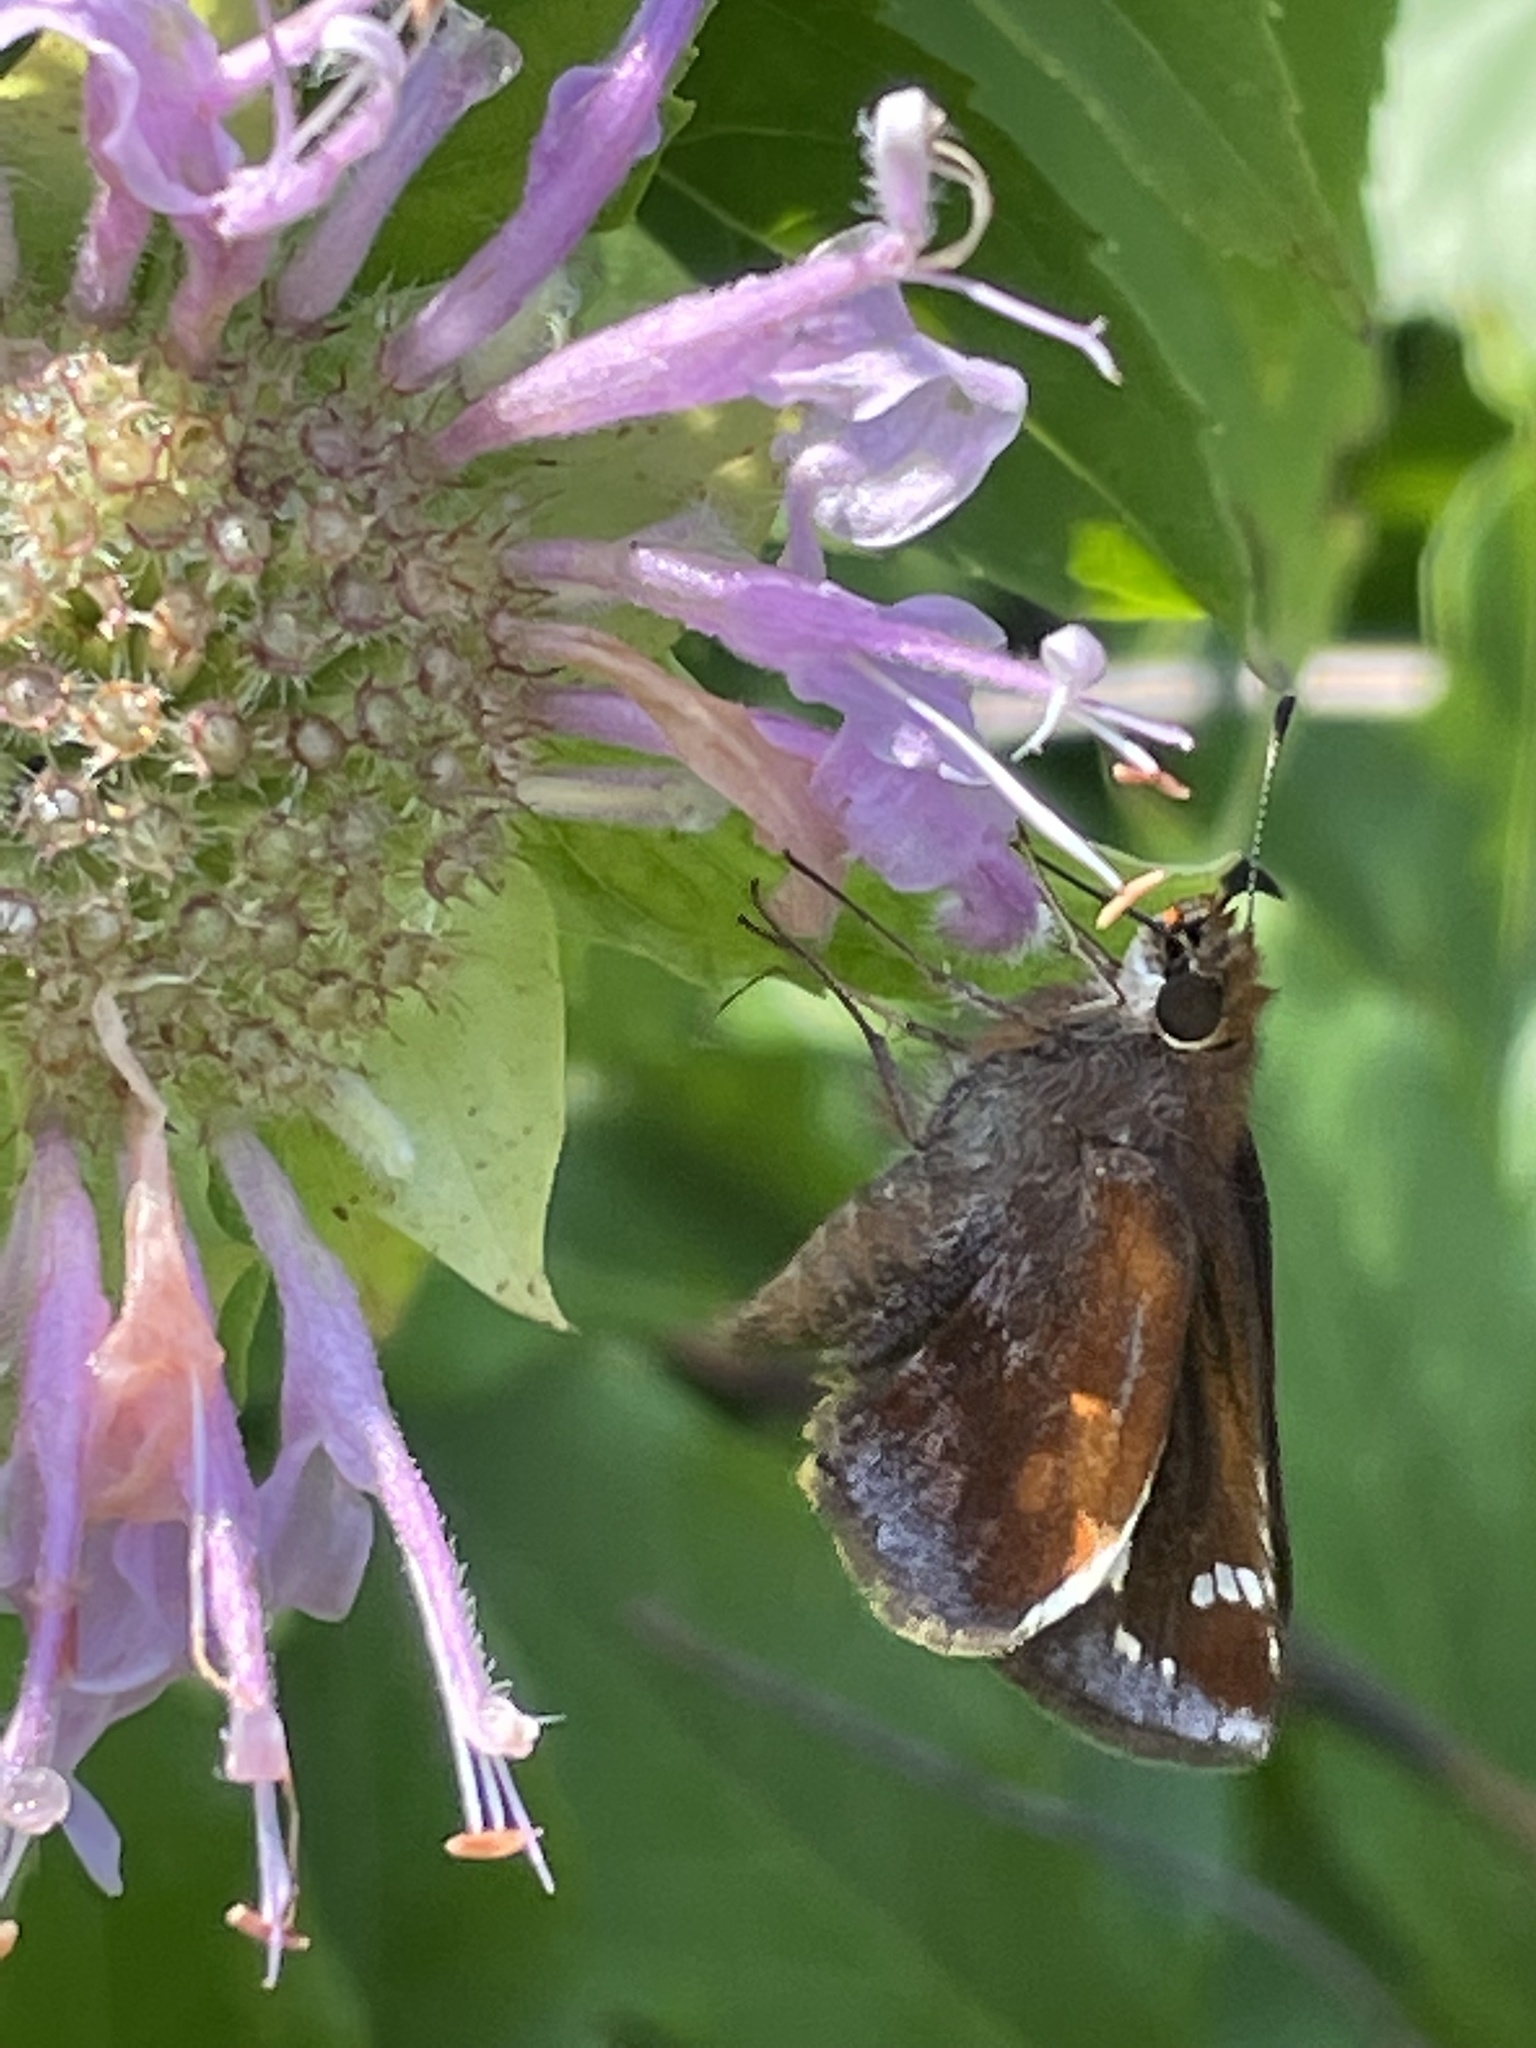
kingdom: Animalia
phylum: Arthropoda
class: Insecta
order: Lepidoptera
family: Hesperiidae
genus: Lon
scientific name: Lon zabulon
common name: Zabulon skipper
